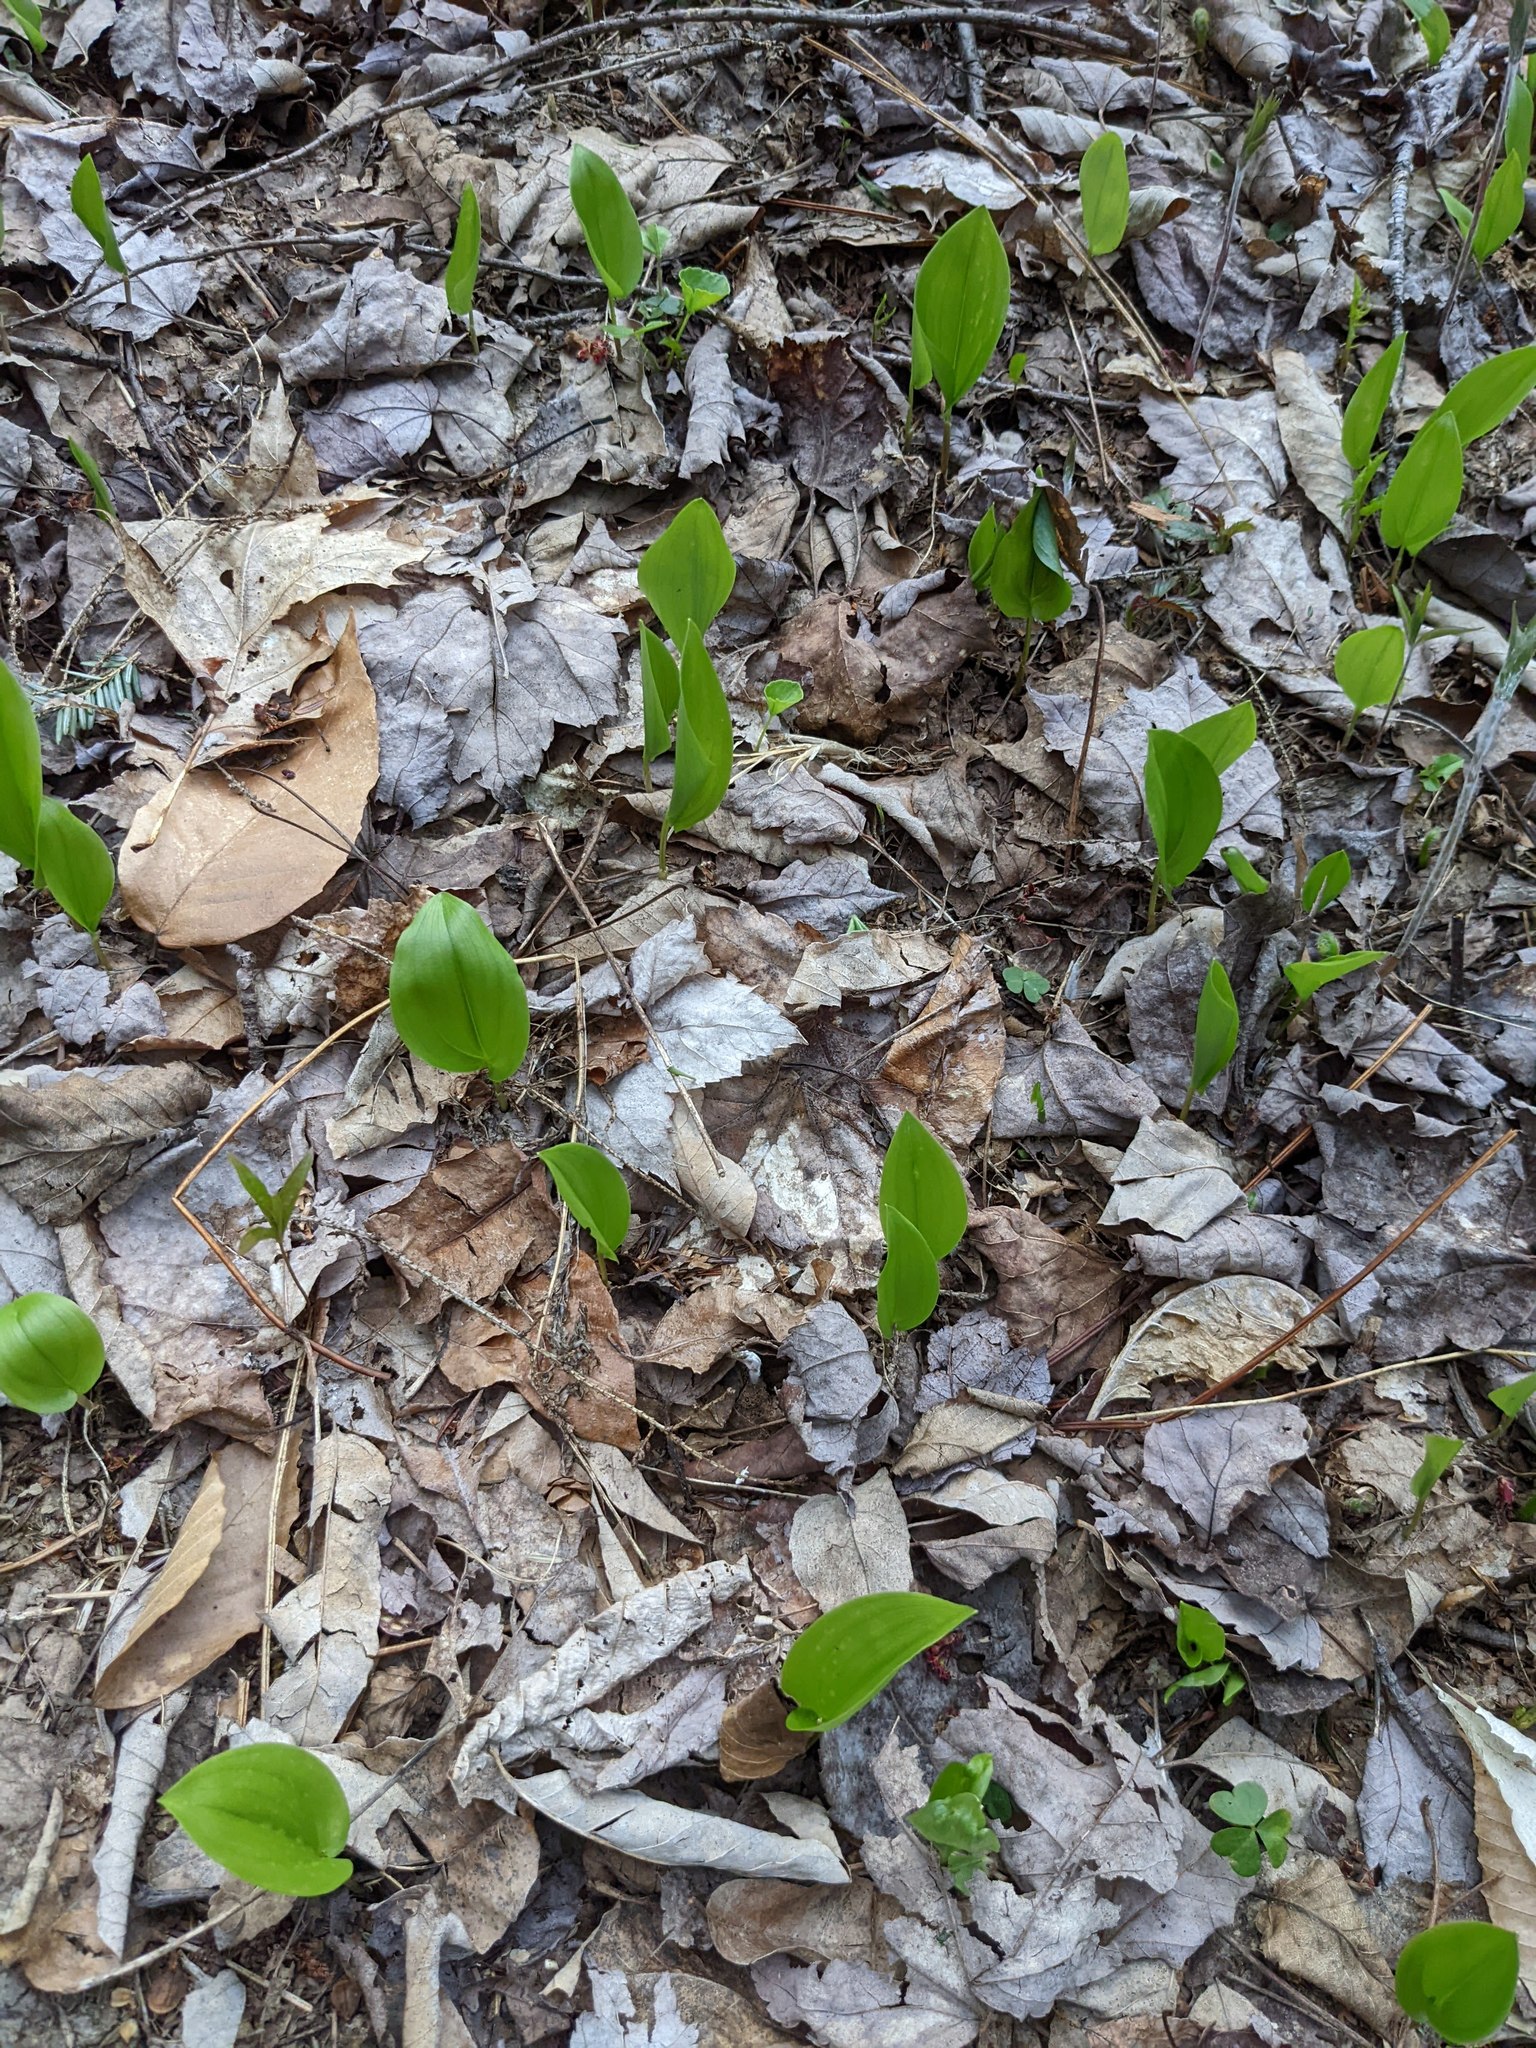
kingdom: Plantae
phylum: Tracheophyta
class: Liliopsida
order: Asparagales
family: Asparagaceae
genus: Maianthemum
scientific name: Maianthemum canadense
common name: False lily-of-the-valley
